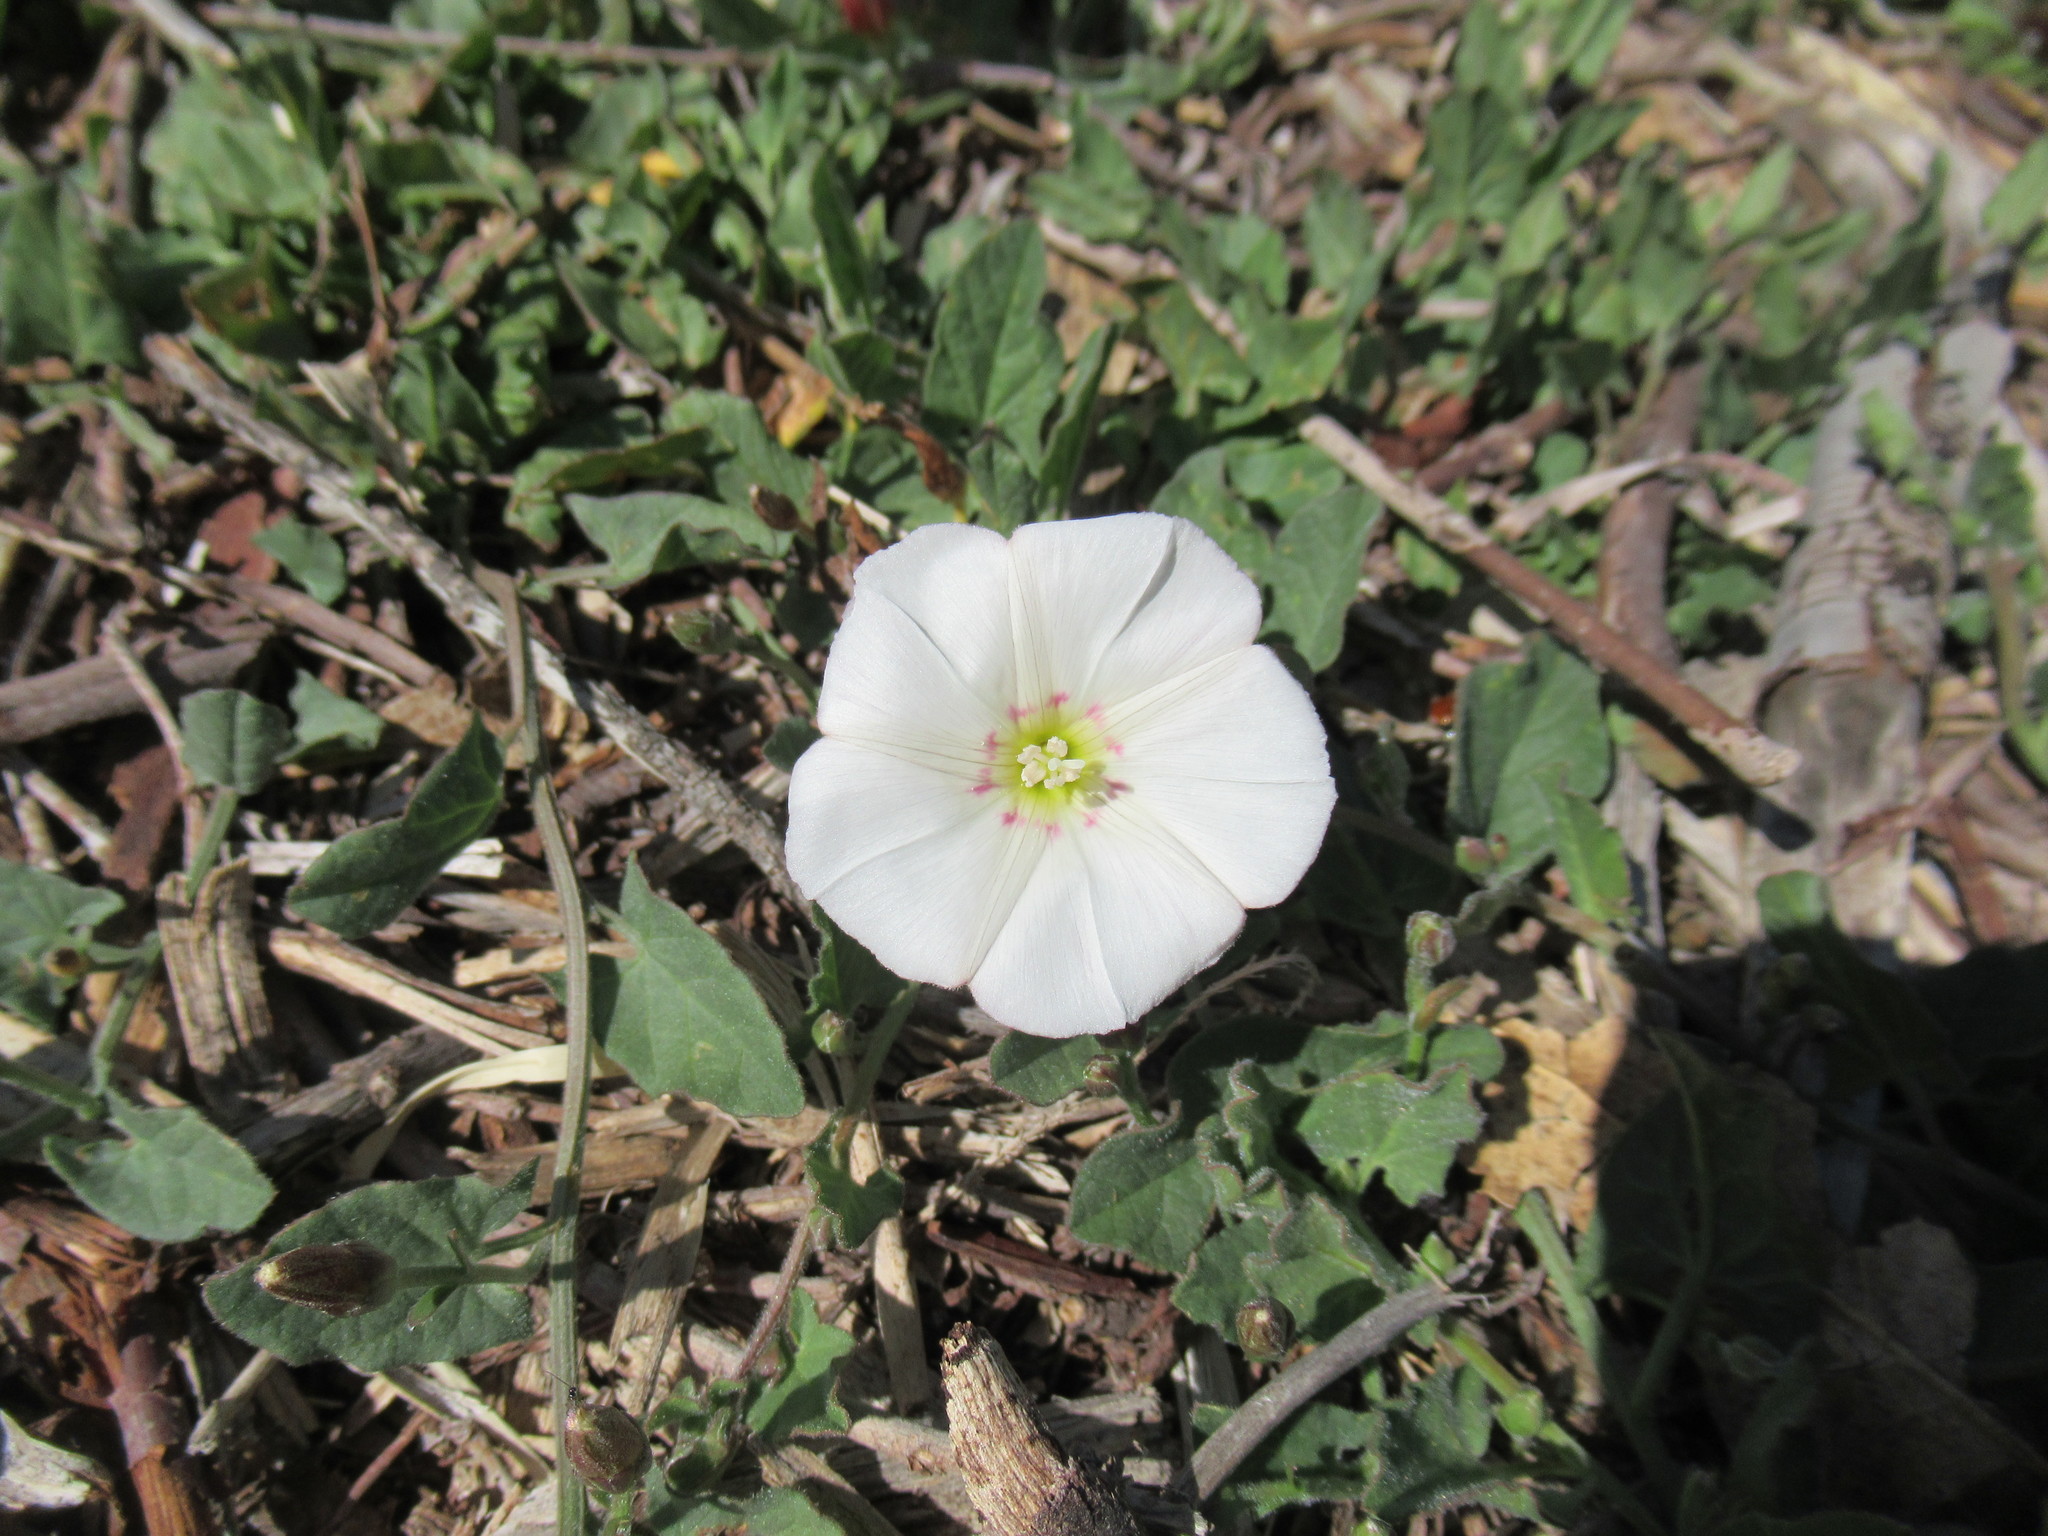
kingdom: Plantae
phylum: Tracheophyta
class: Magnoliopsida
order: Solanales
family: Convolvulaceae
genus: Convolvulus
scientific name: Convolvulus arvensis
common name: Field bindweed
